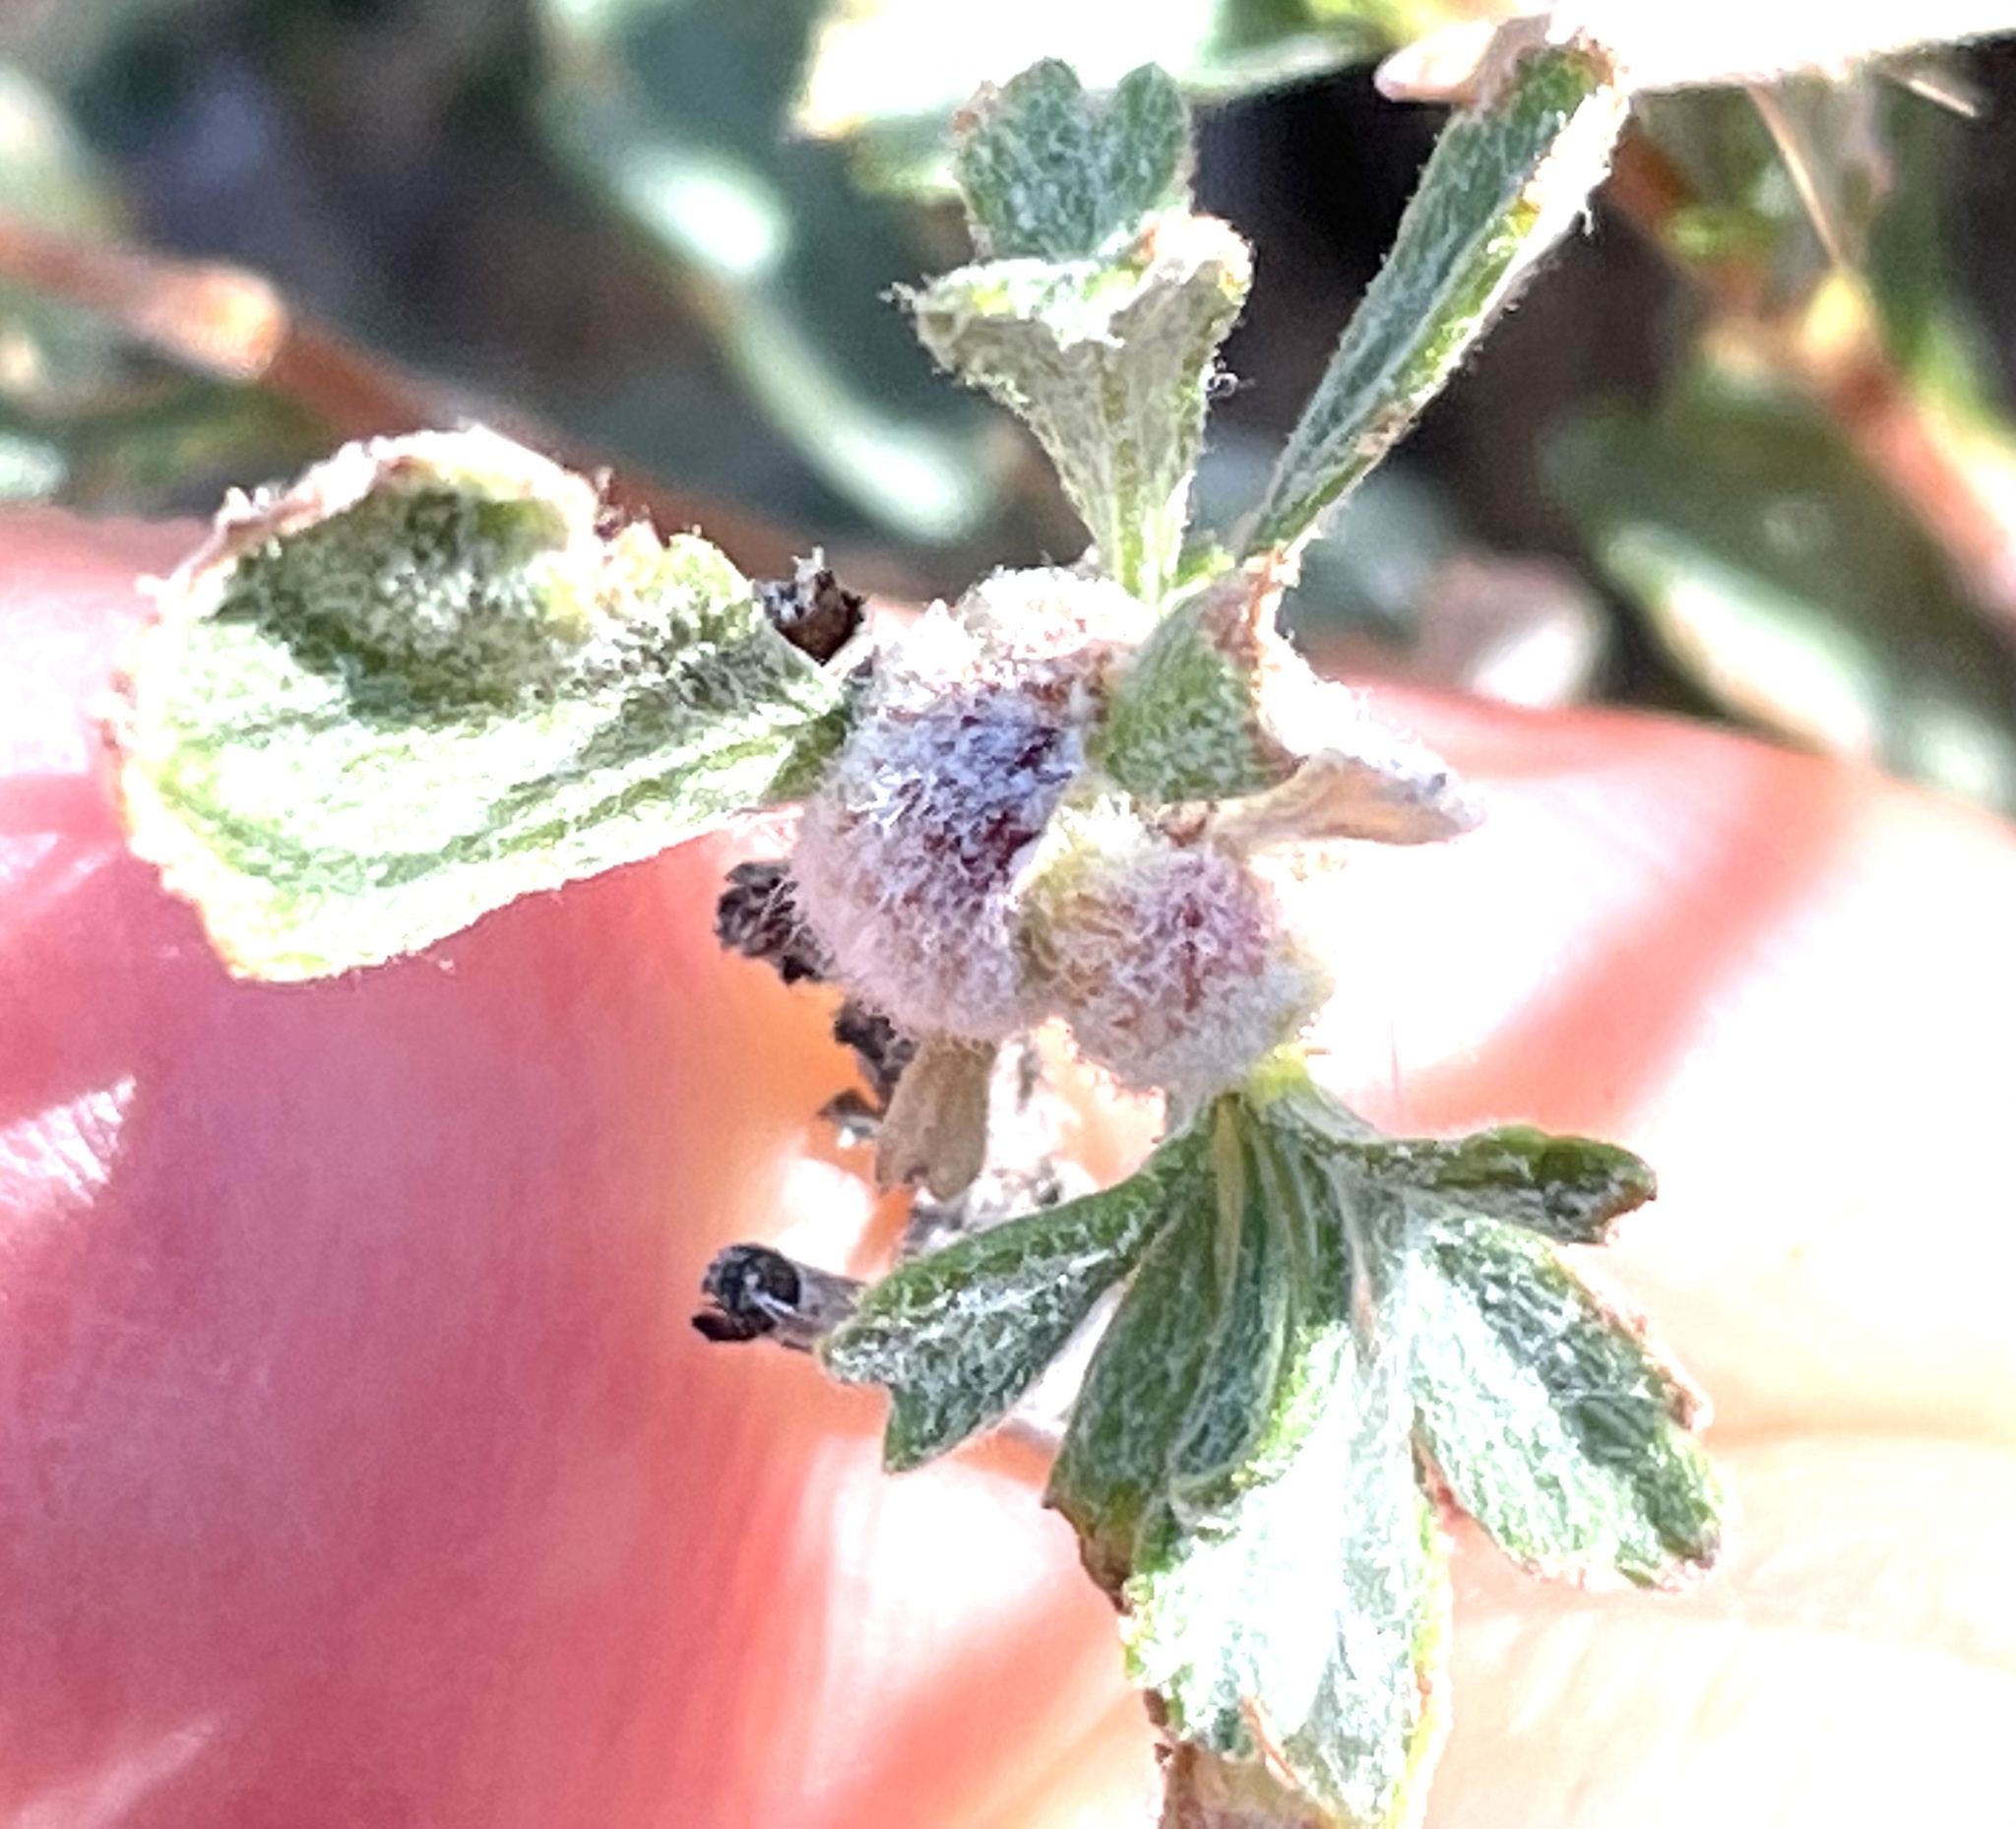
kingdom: Animalia
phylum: Arthropoda
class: Arachnida
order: Trombidiformes
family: Eriophyidae
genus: Aceria
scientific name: Aceria
